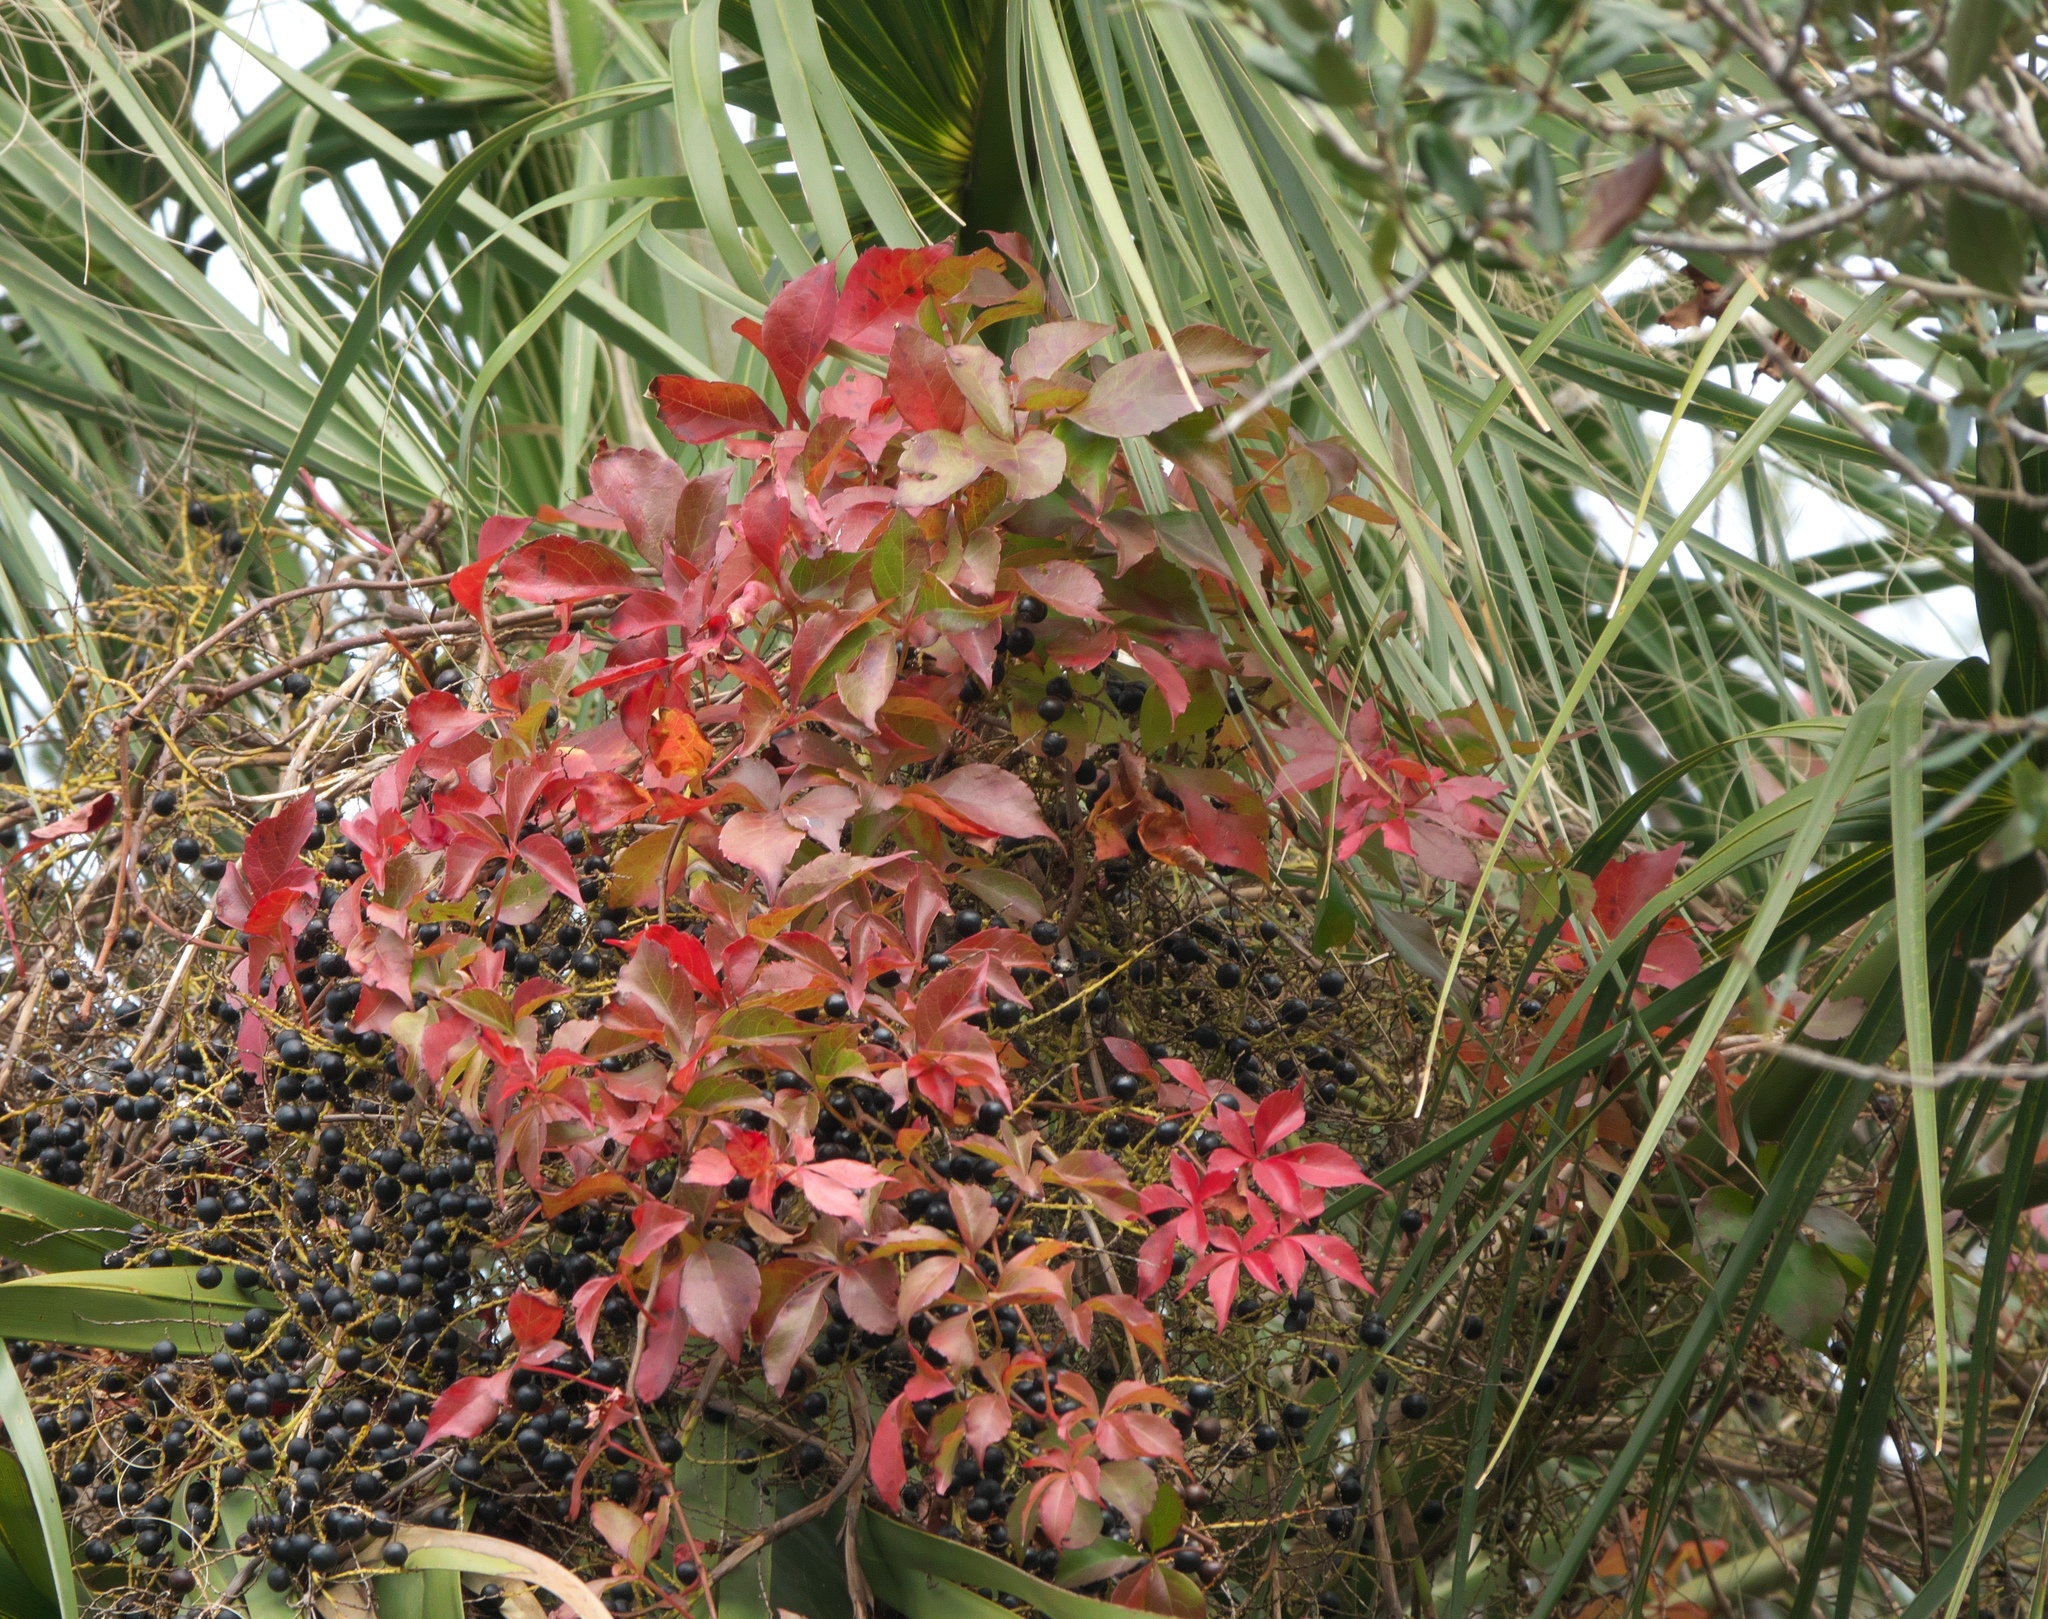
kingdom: Plantae
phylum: Tracheophyta
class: Magnoliopsida
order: Vitales
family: Vitaceae
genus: Parthenocissus
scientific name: Parthenocissus quinquefolia
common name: Virginia-creeper
